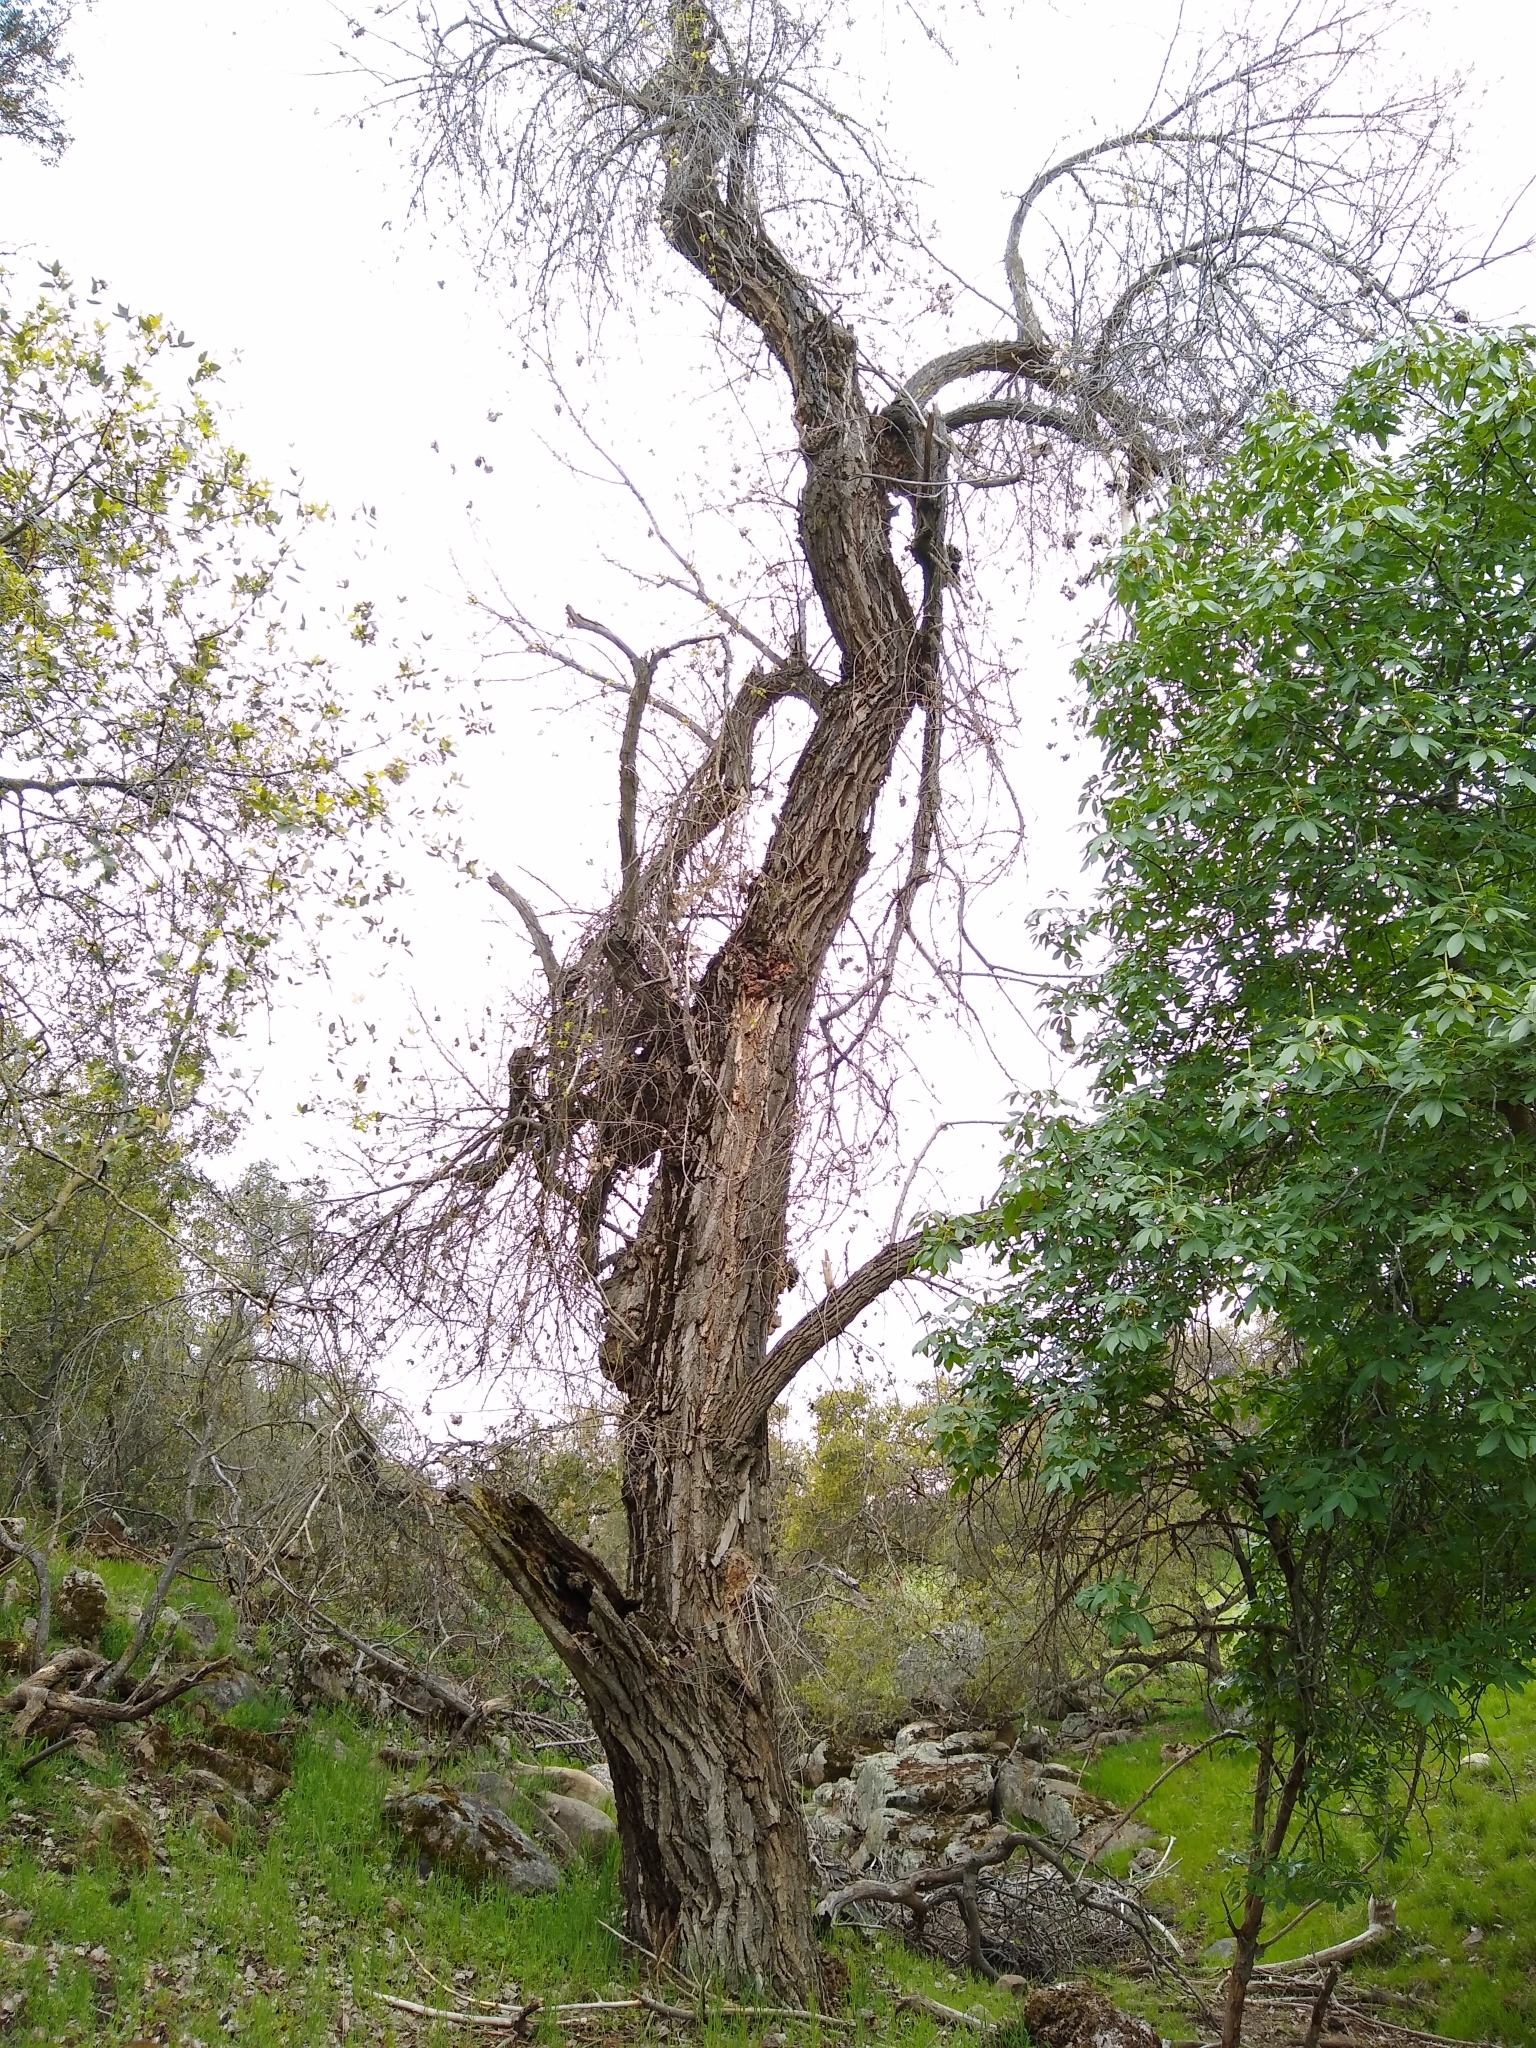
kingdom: Plantae
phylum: Tracheophyta
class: Magnoliopsida
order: Malpighiales
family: Salicaceae
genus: Populus
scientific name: Populus fremontii
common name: Fremont's cottonwood
